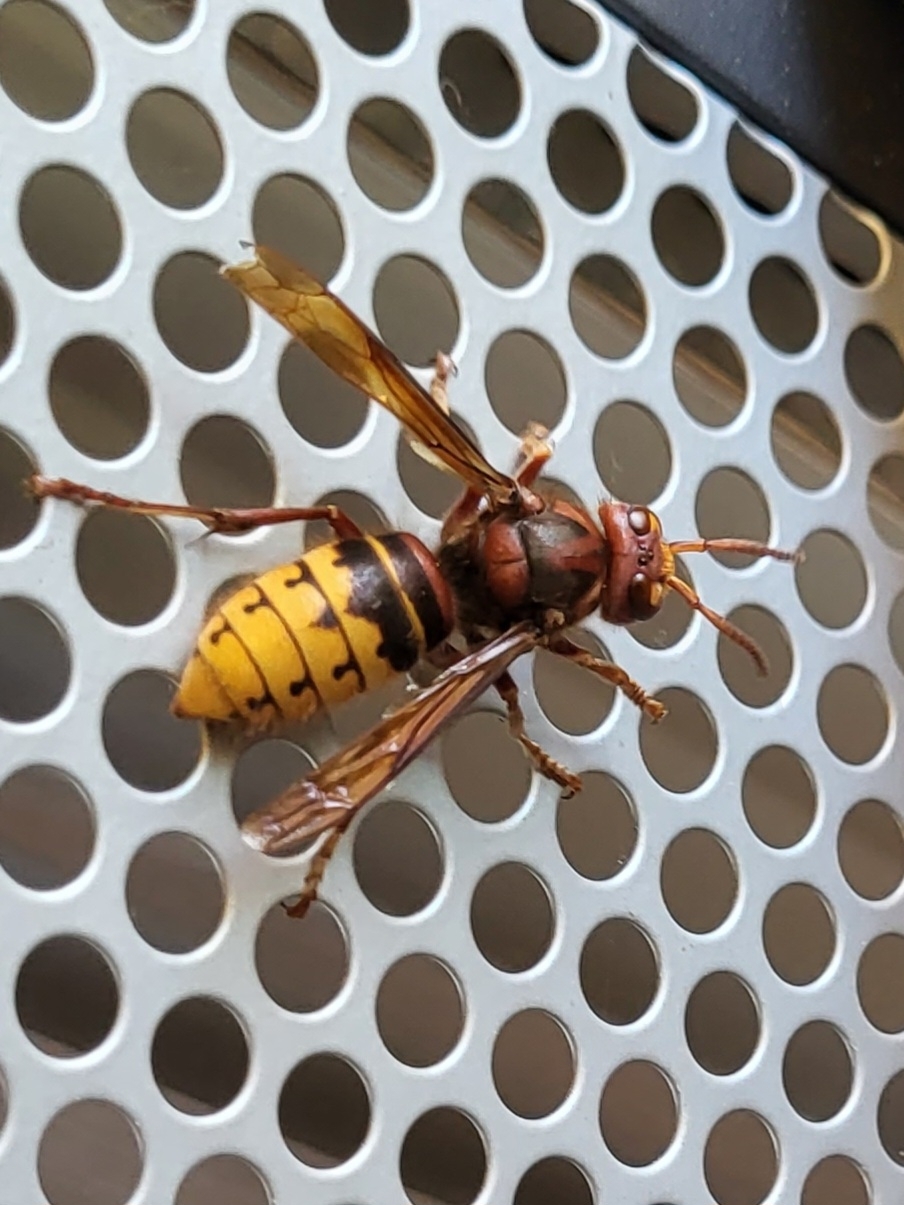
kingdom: Animalia
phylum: Arthropoda
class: Insecta
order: Hymenoptera
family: Vespidae
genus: Vespa
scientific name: Vespa crabro
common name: Hornet
